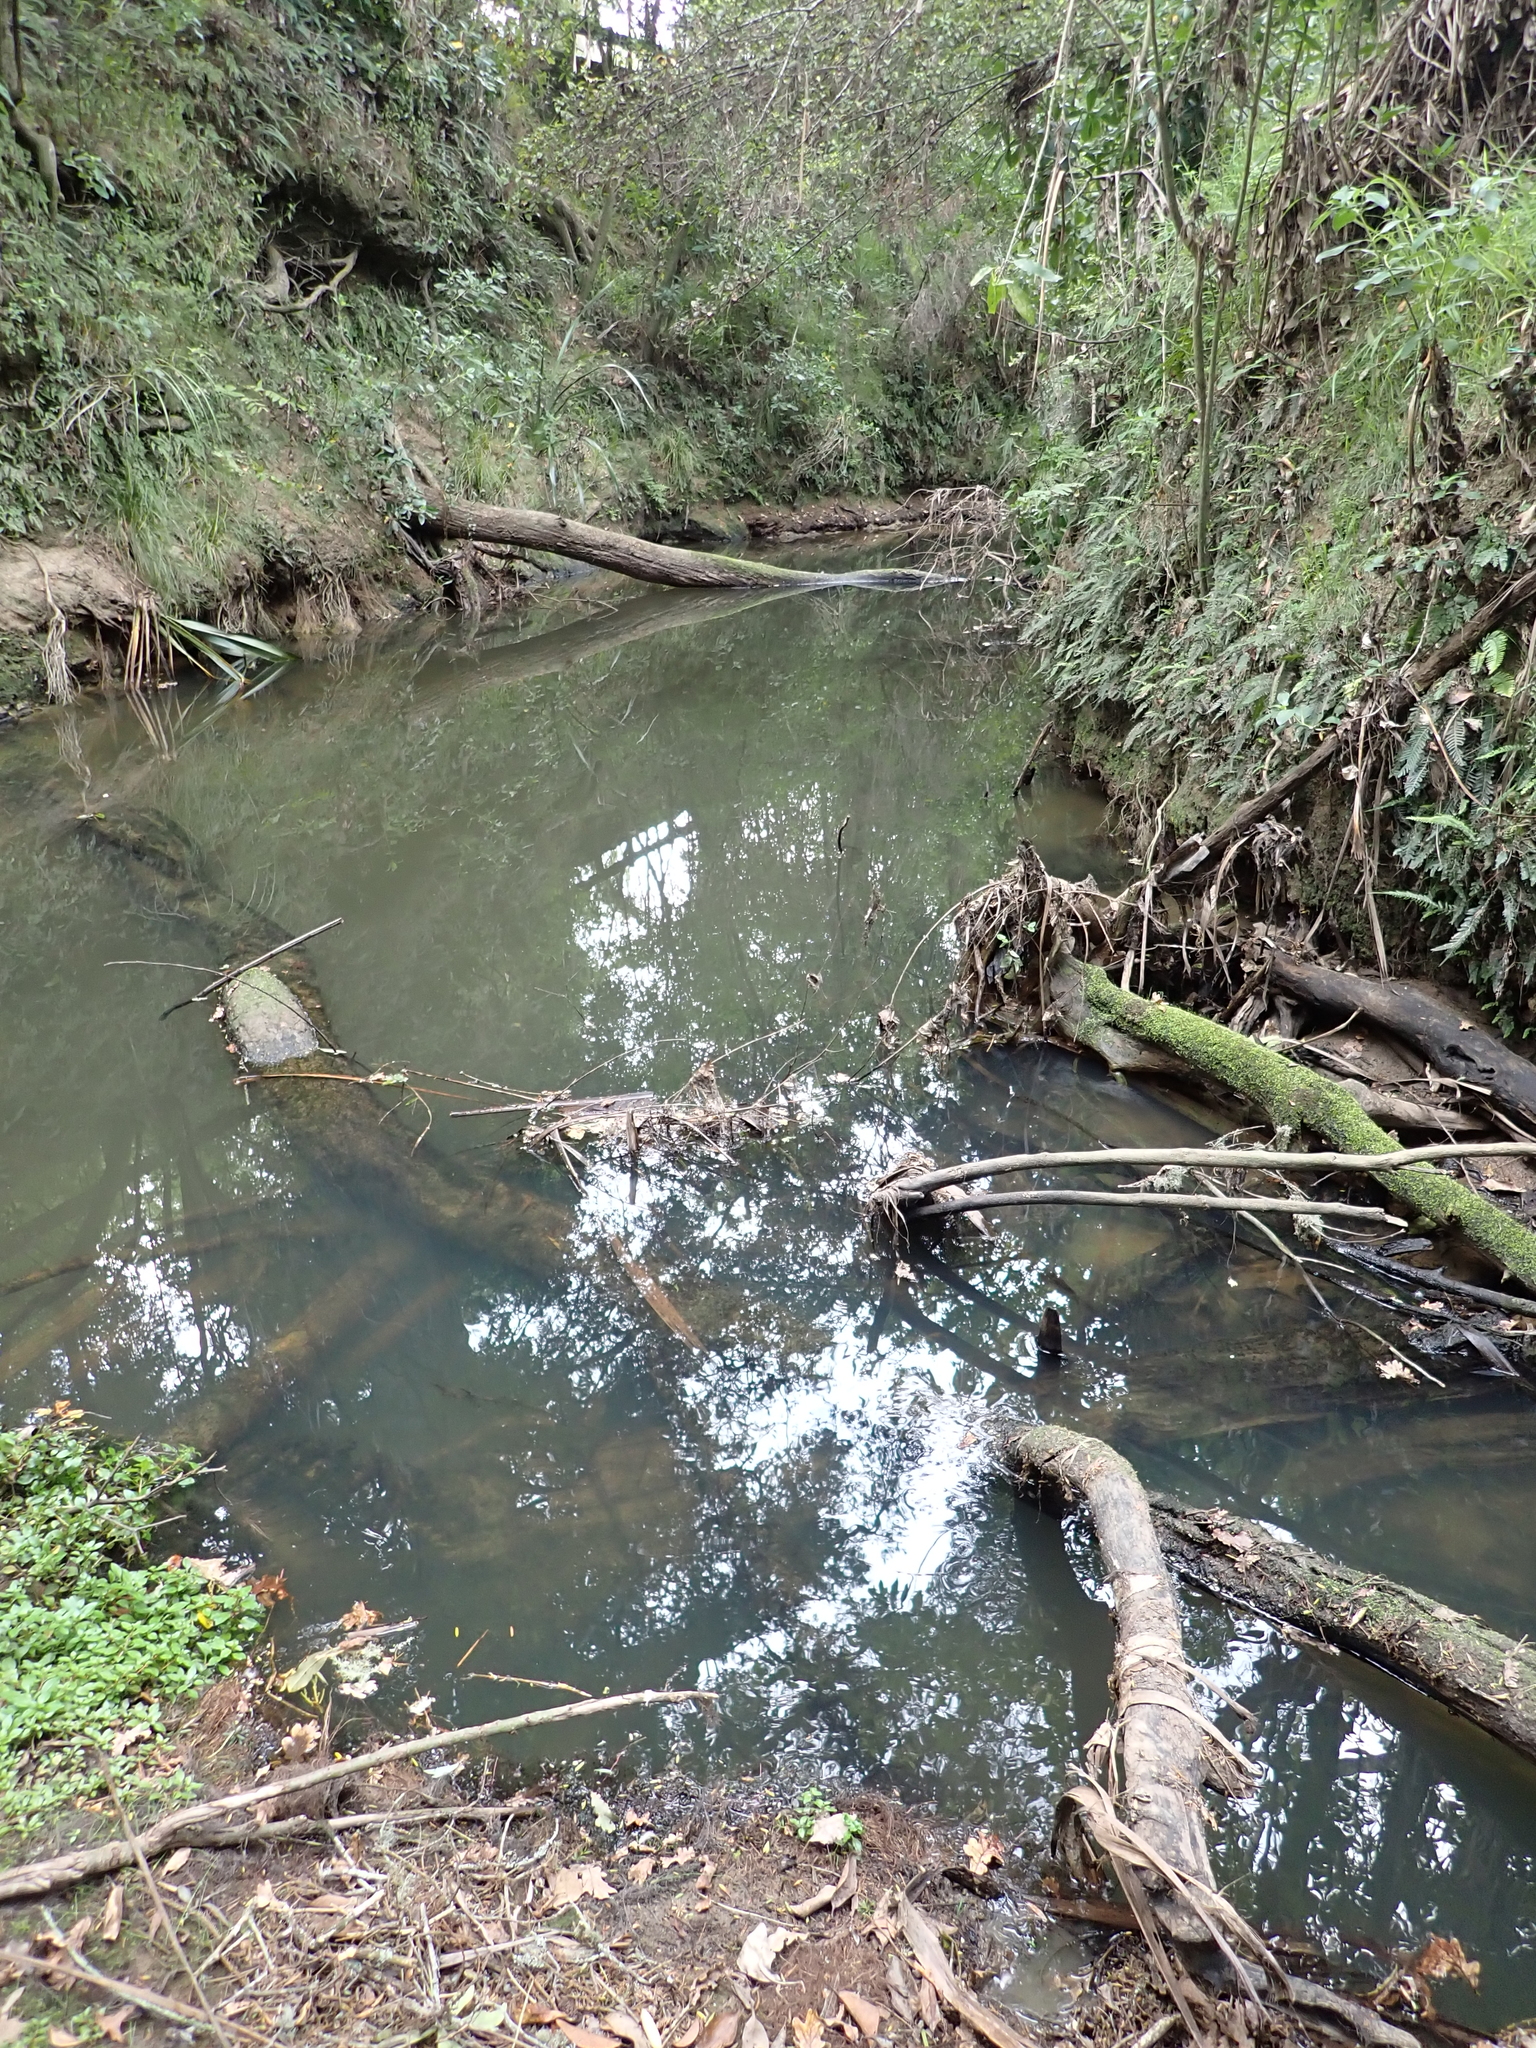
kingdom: Animalia
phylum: Mollusca
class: Gastropoda
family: Lymnaeidae
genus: Pseudosuccinea
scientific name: Pseudosuccinea columella
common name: Mimic lymnaea
